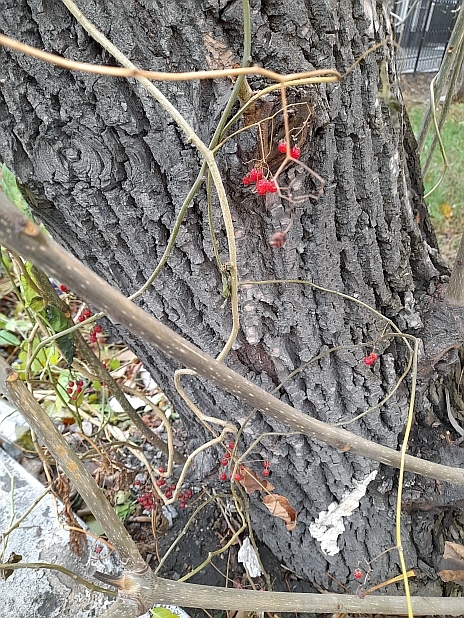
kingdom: Plantae
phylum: Tracheophyta
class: Magnoliopsida
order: Solanales
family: Solanaceae
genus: Solanum
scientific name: Solanum dulcamara
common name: Climbing nightshade
